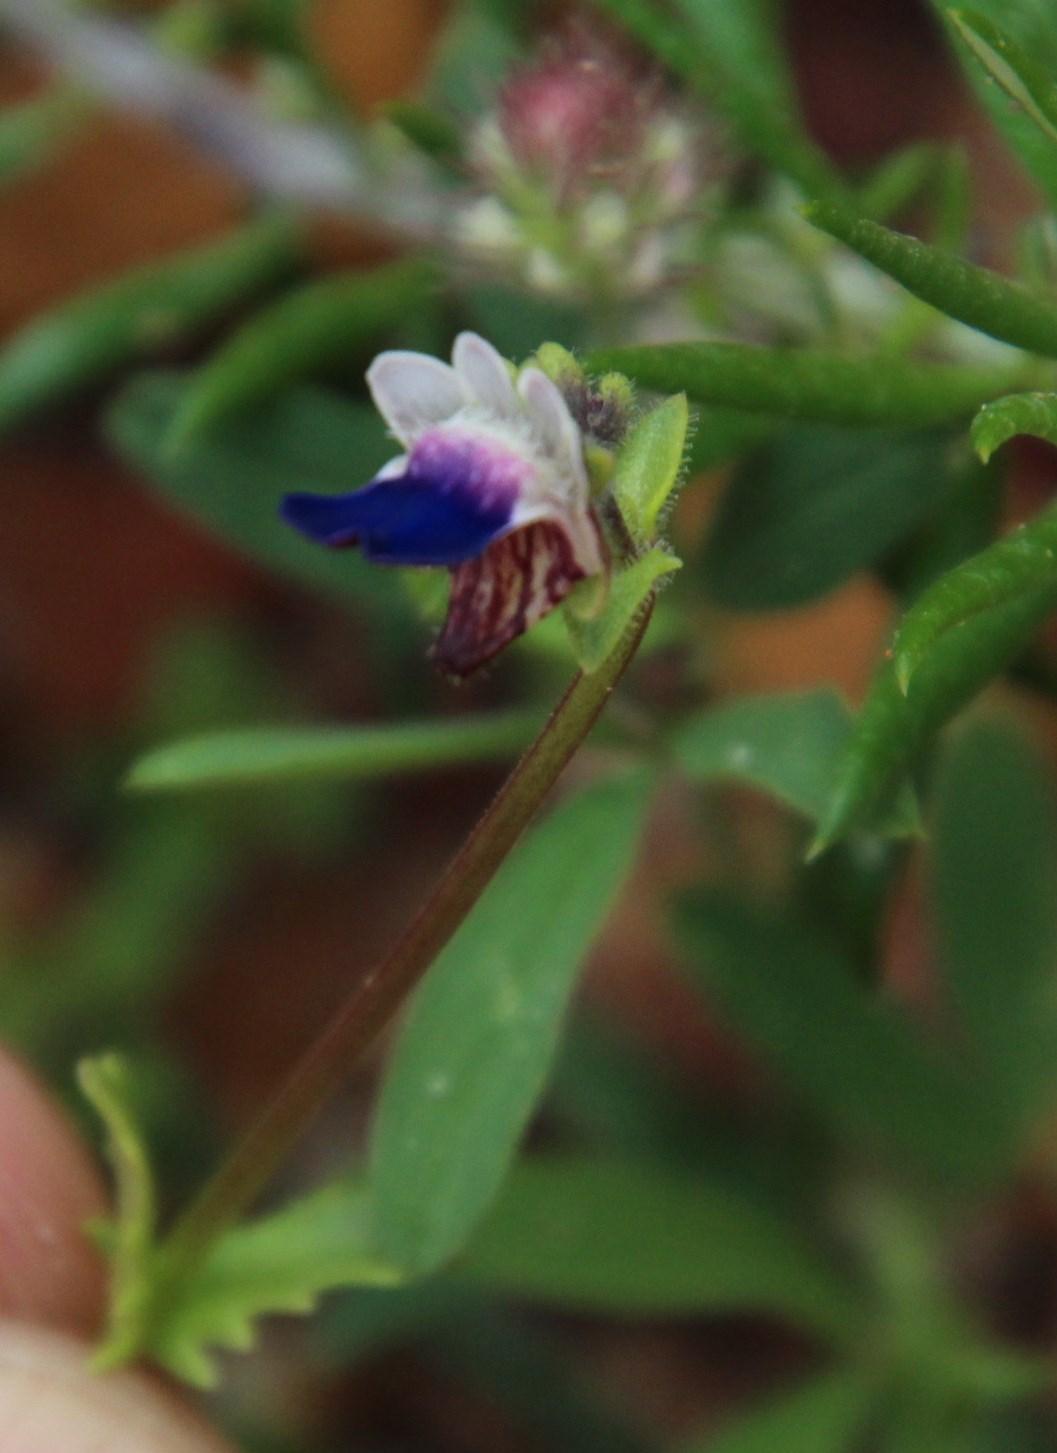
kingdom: Plantae
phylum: Tracheophyta
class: Magnoliopsida
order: Lamiales
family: Scrophulariaceae
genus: Nemesia
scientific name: Nemesia barbata
